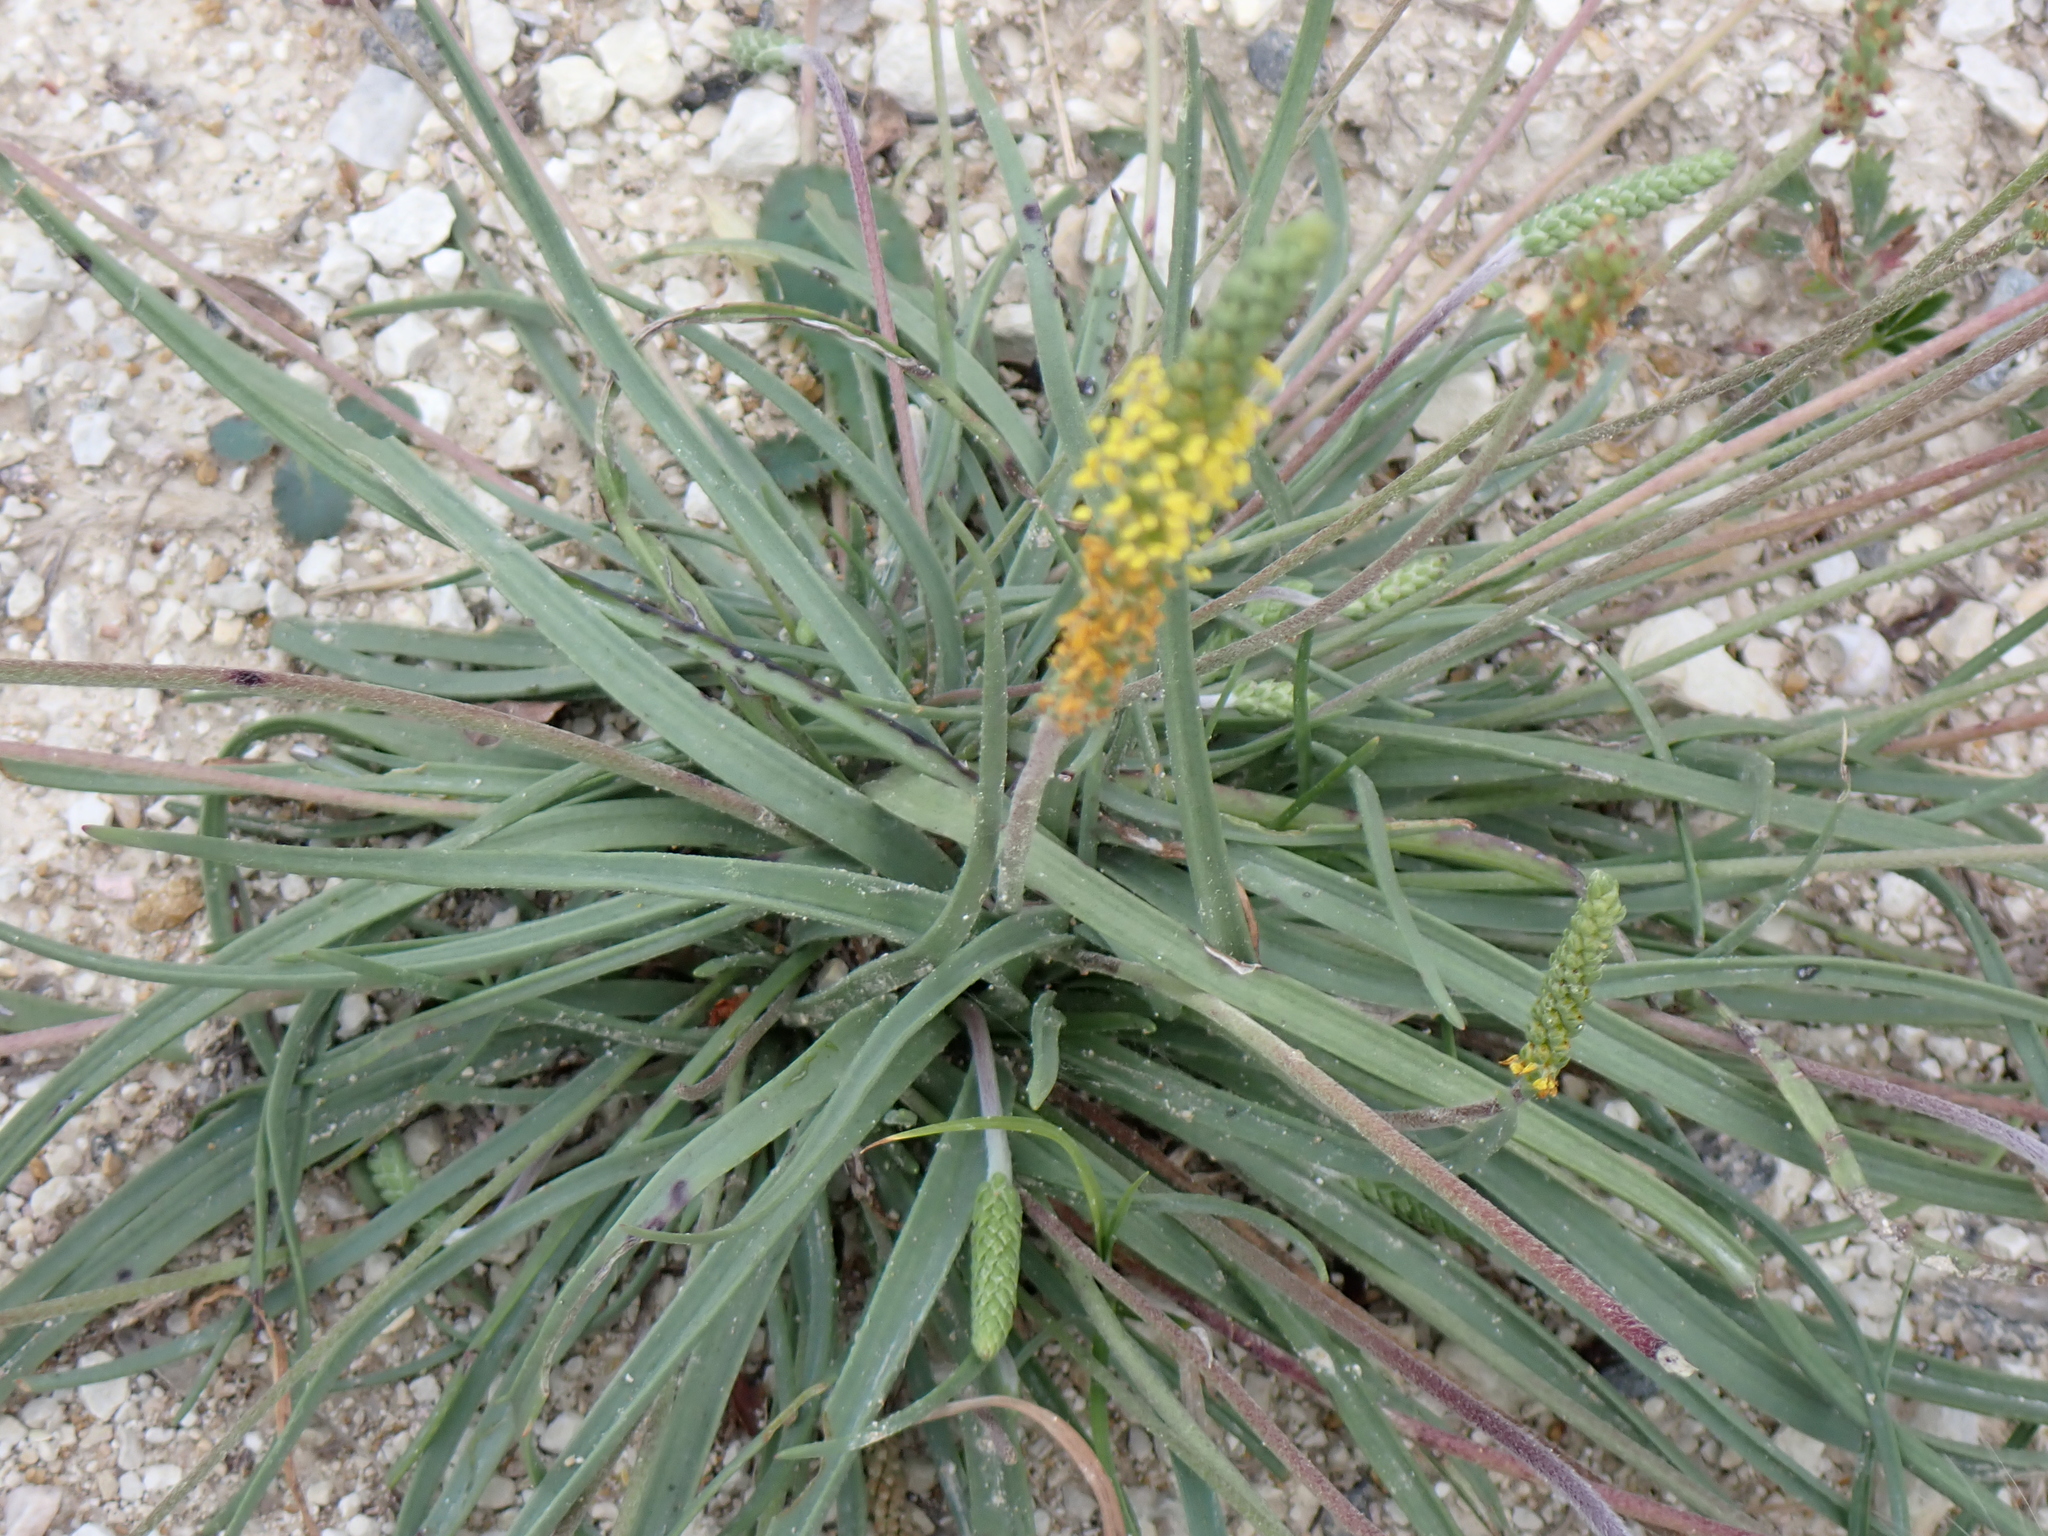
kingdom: Plantae
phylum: Tracheophyta
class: Magnoliopsida
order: Lamiales
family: Plantaginaceae
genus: Plantago
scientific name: Plantago maritima
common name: Sea plantain
